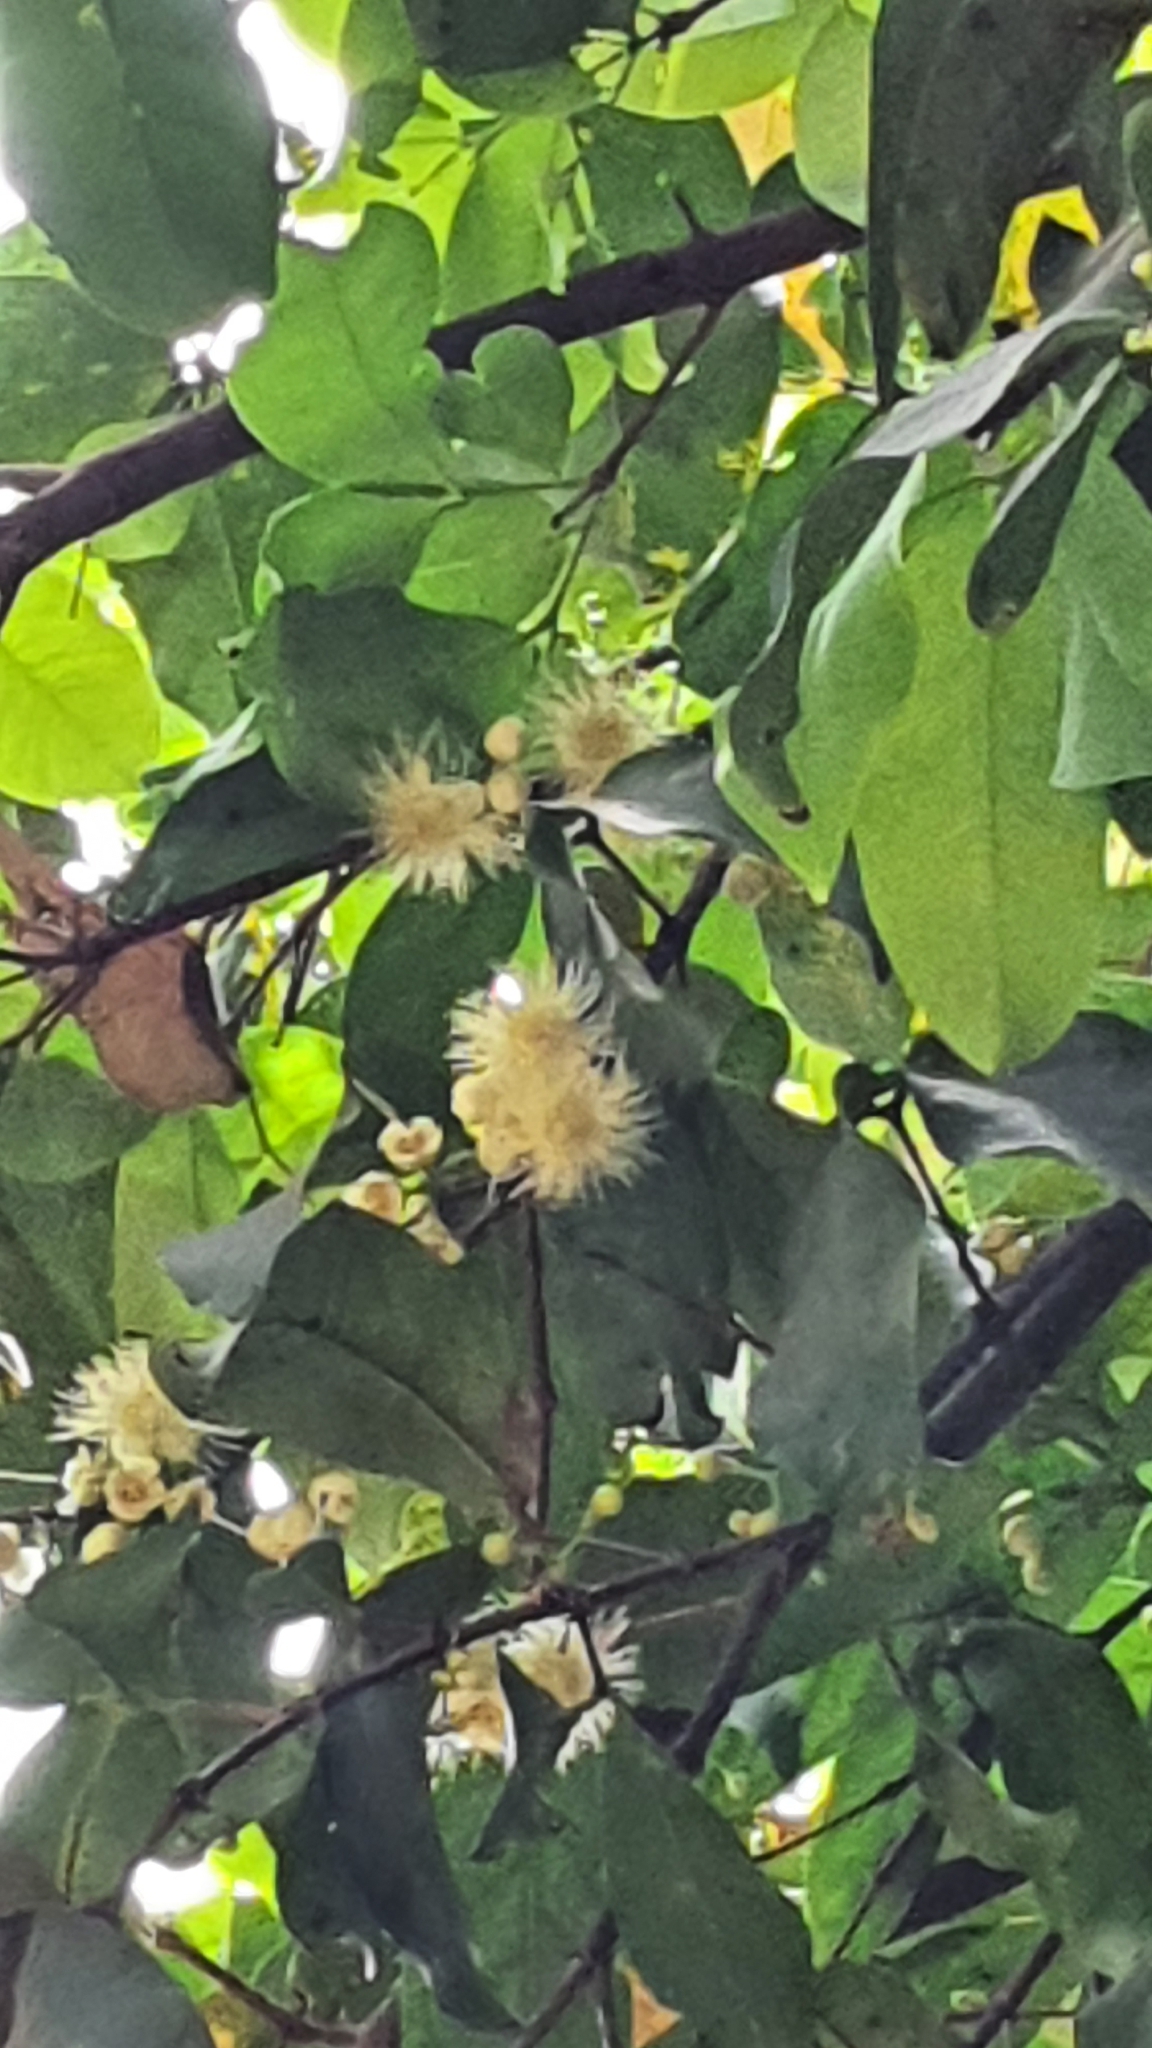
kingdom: Plantae
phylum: Tracheophyta
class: Magnoliopsida
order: Myrtales
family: Myrtaceae
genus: Syzygium
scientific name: Syzygium samarangense
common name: Semarang rose-apple
